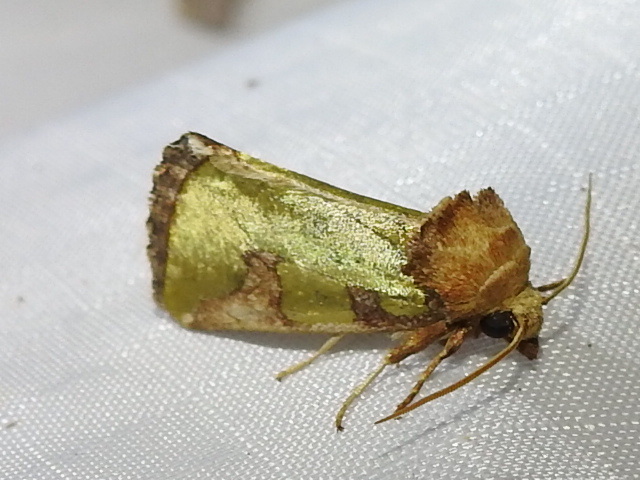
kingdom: Animalia
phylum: Arthropoda
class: Insecta
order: Lepidoptera
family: Noctuidae
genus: Chalcopasta
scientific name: Chalcopasta territans
